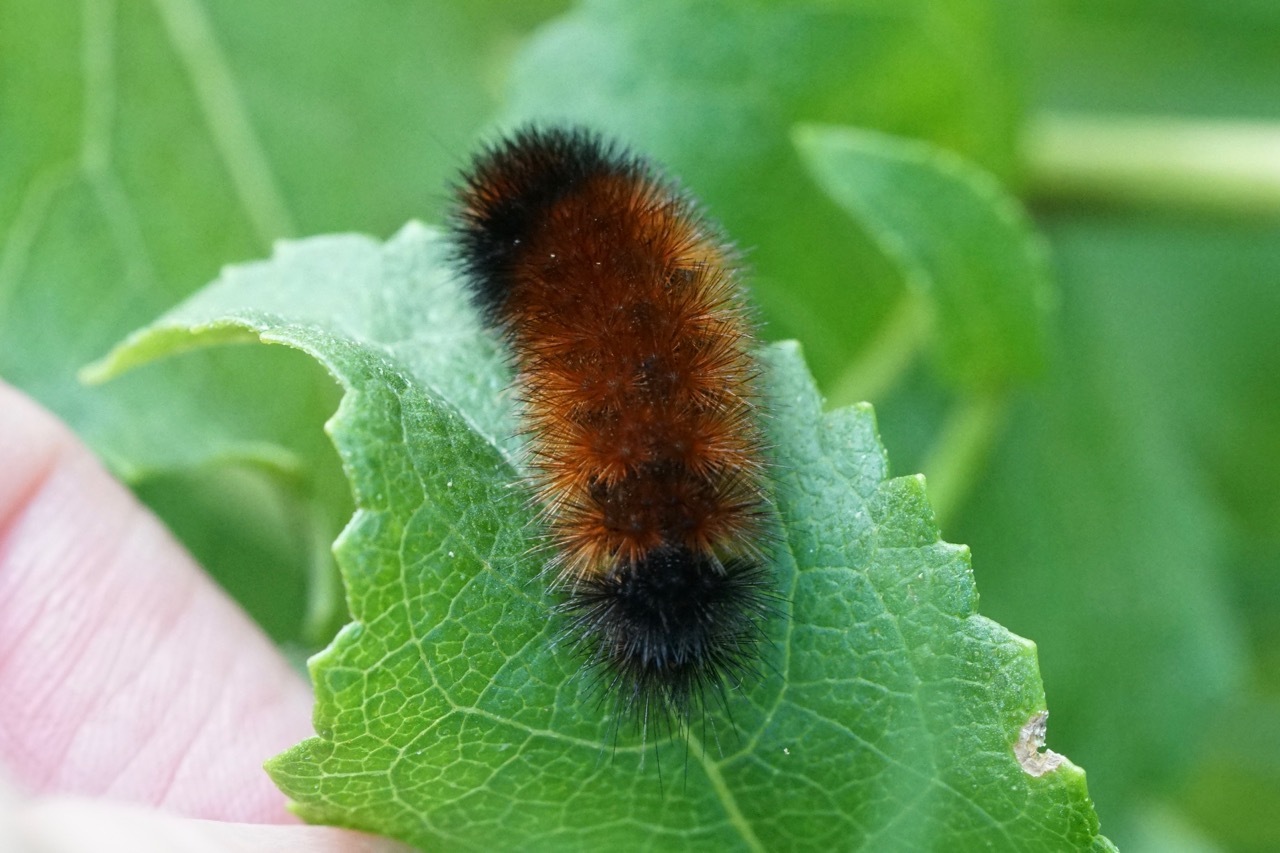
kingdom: Animalia
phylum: Arthropoda
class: Insecta
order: Lepidoptera
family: Erebidae
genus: Pyrrharctia
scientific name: Pyrrharctia isabella
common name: Isabella tiger moth
